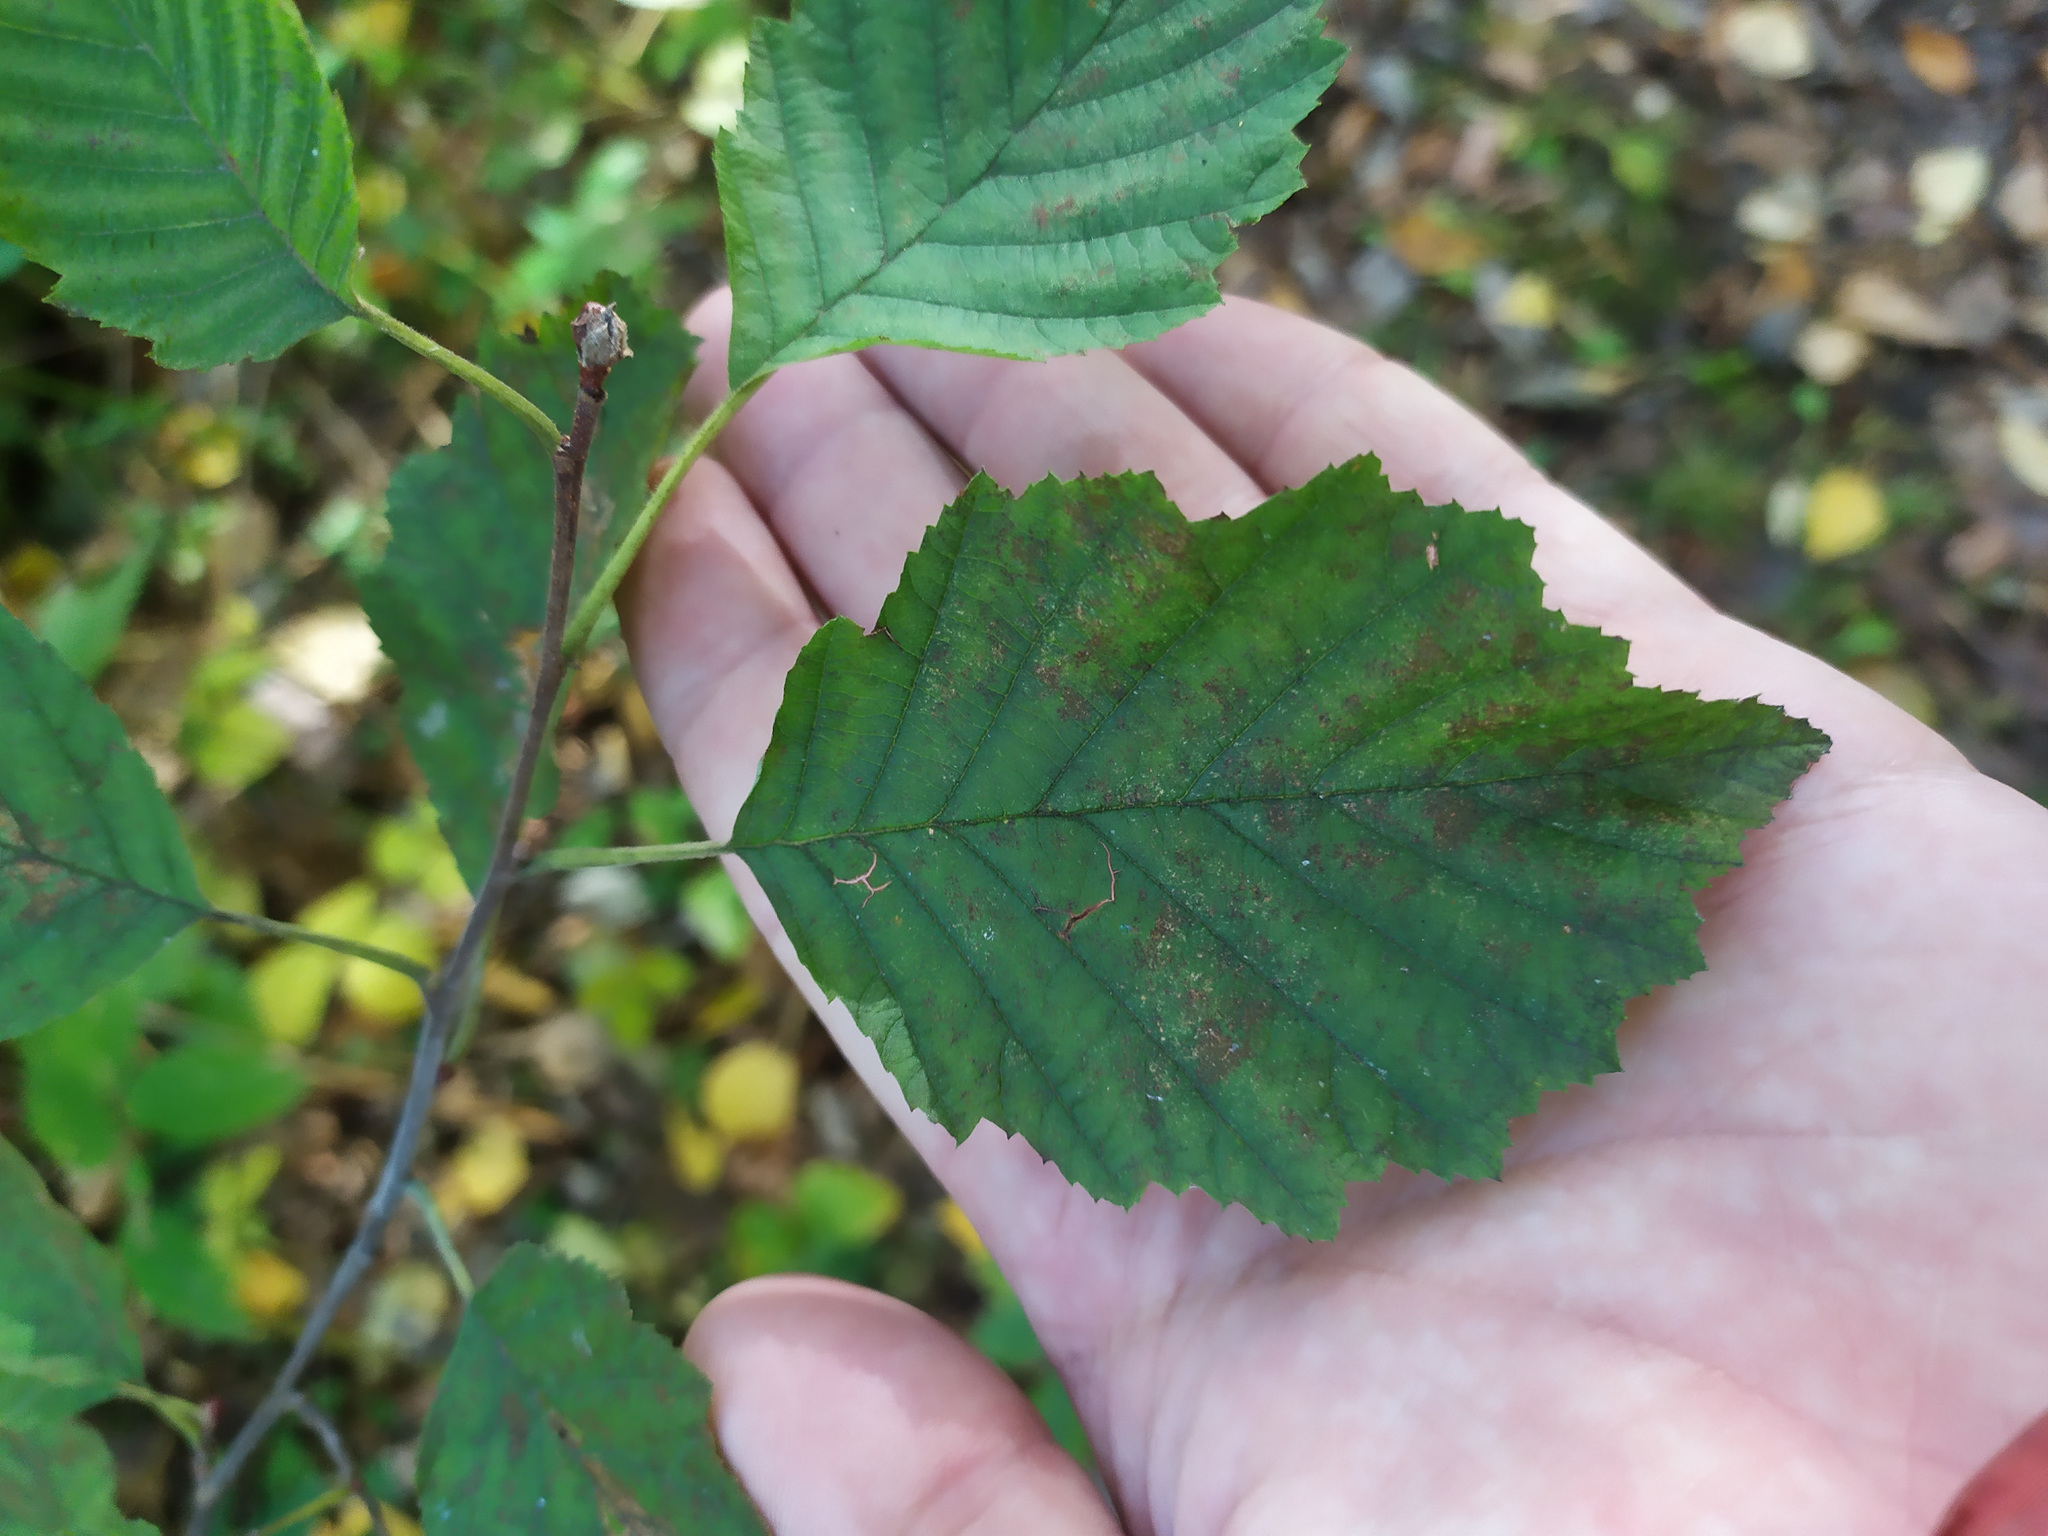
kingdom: Plantae
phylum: Tracheophyta
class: Magnoliopsida
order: Fagales
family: Betulaceae
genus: Alnus
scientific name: Alnus incana
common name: Grey alder
